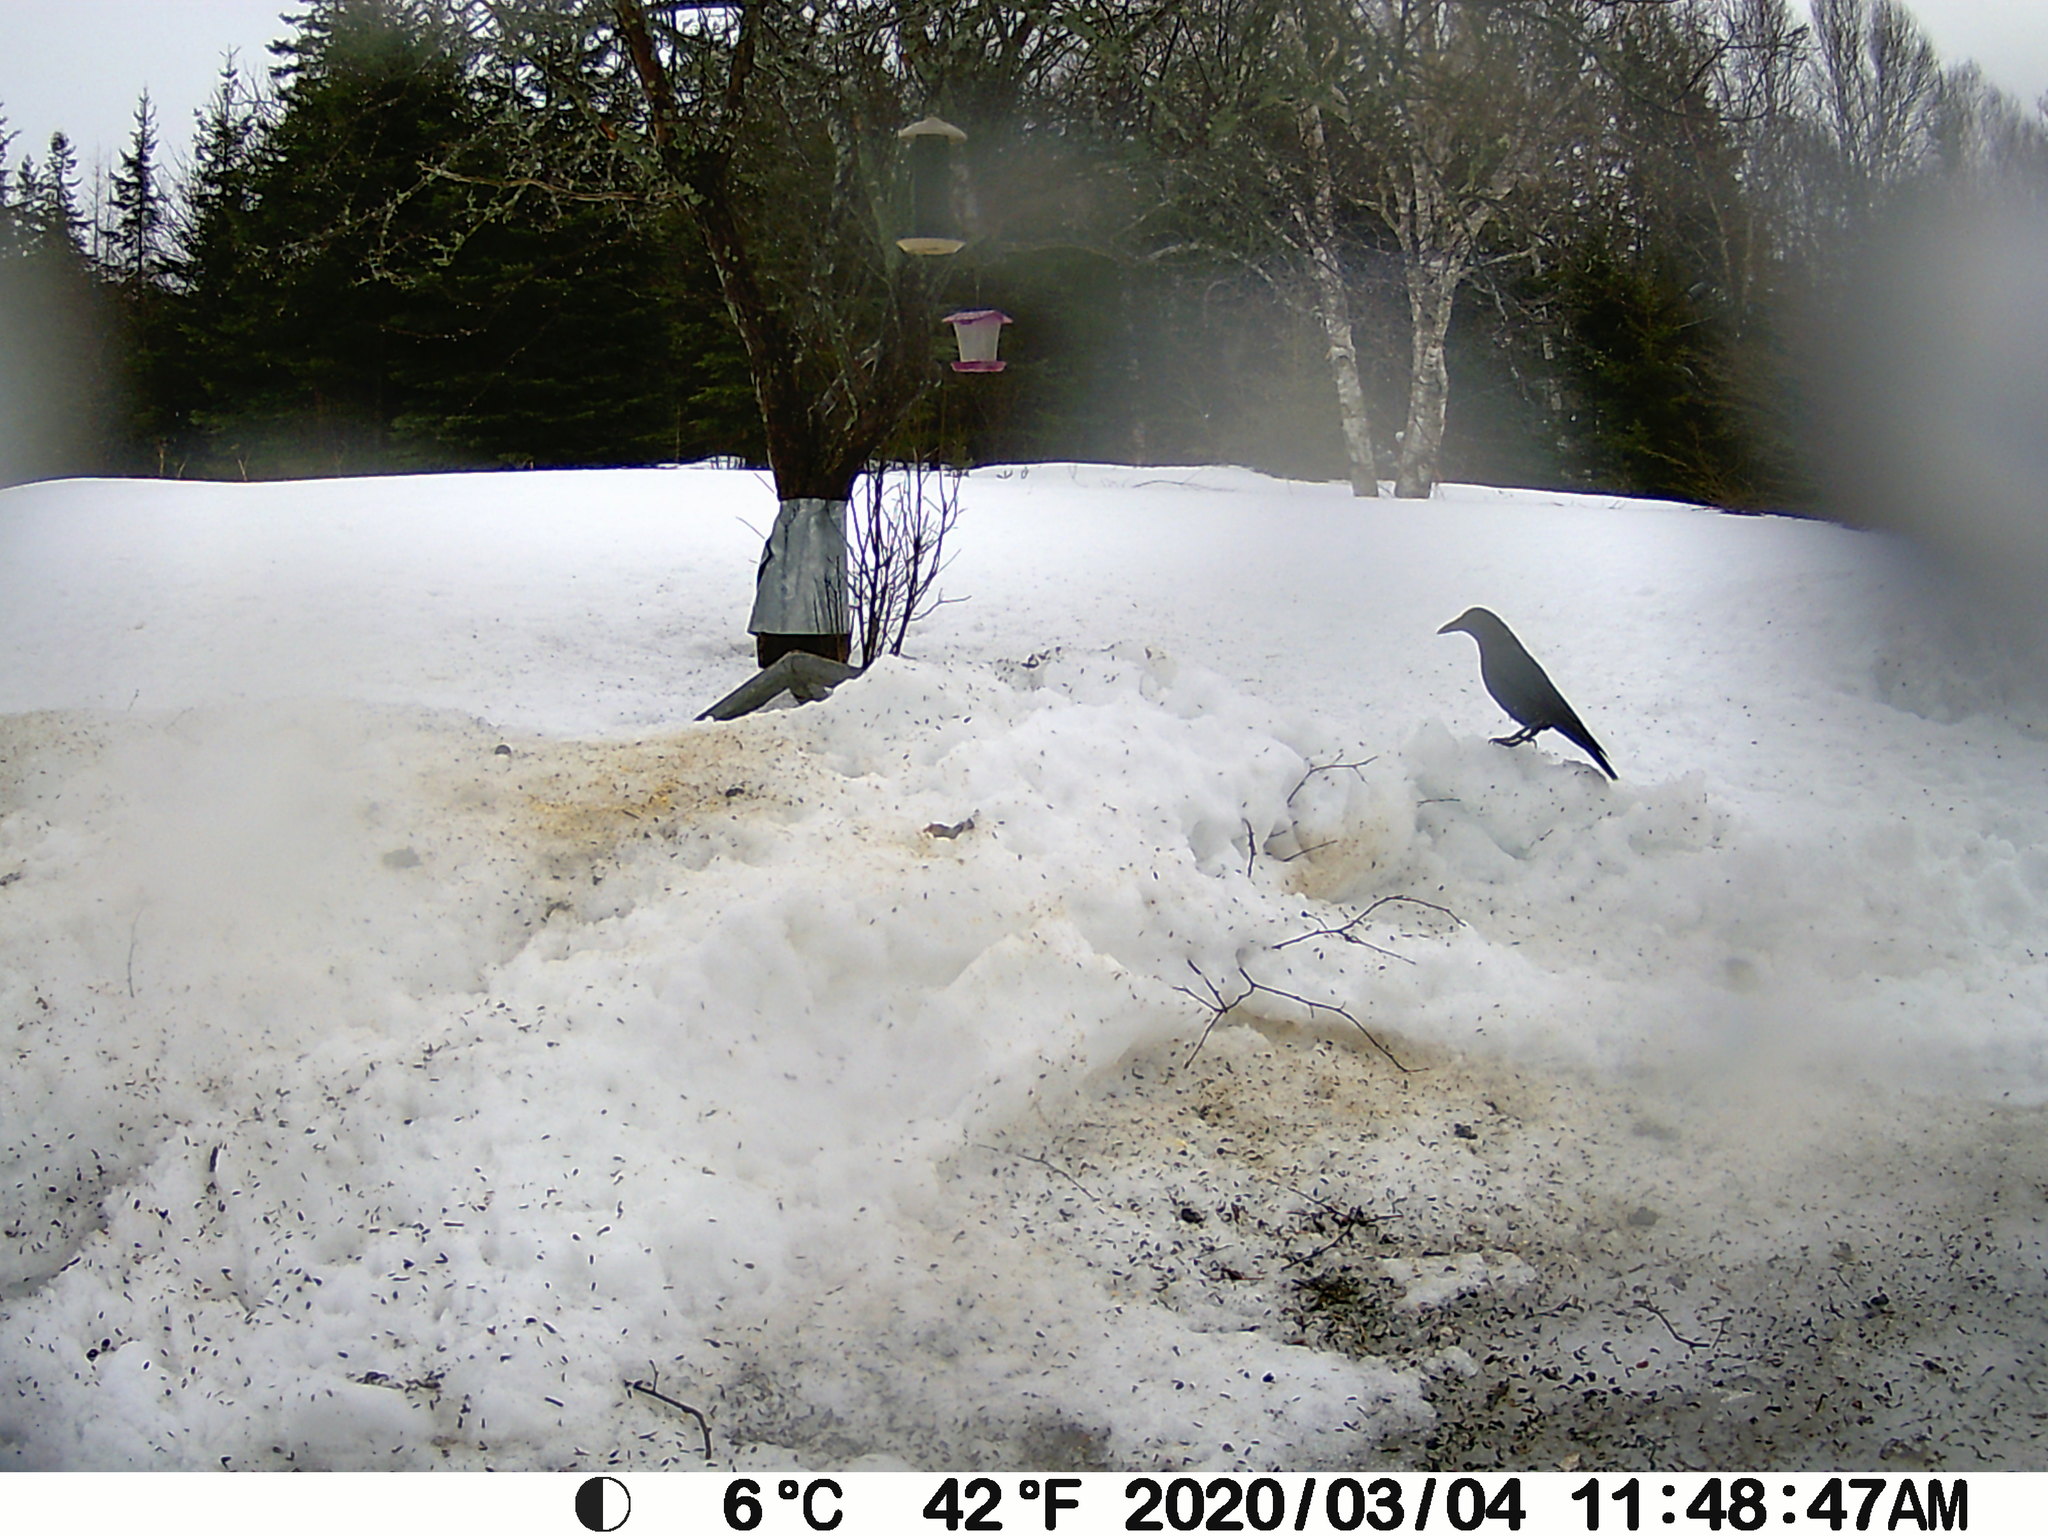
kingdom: Animalia
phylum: Chordata
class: Aves
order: Passeriformes
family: Corvidae
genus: Corvus
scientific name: Corvus brachyrhynchos
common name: American crow
